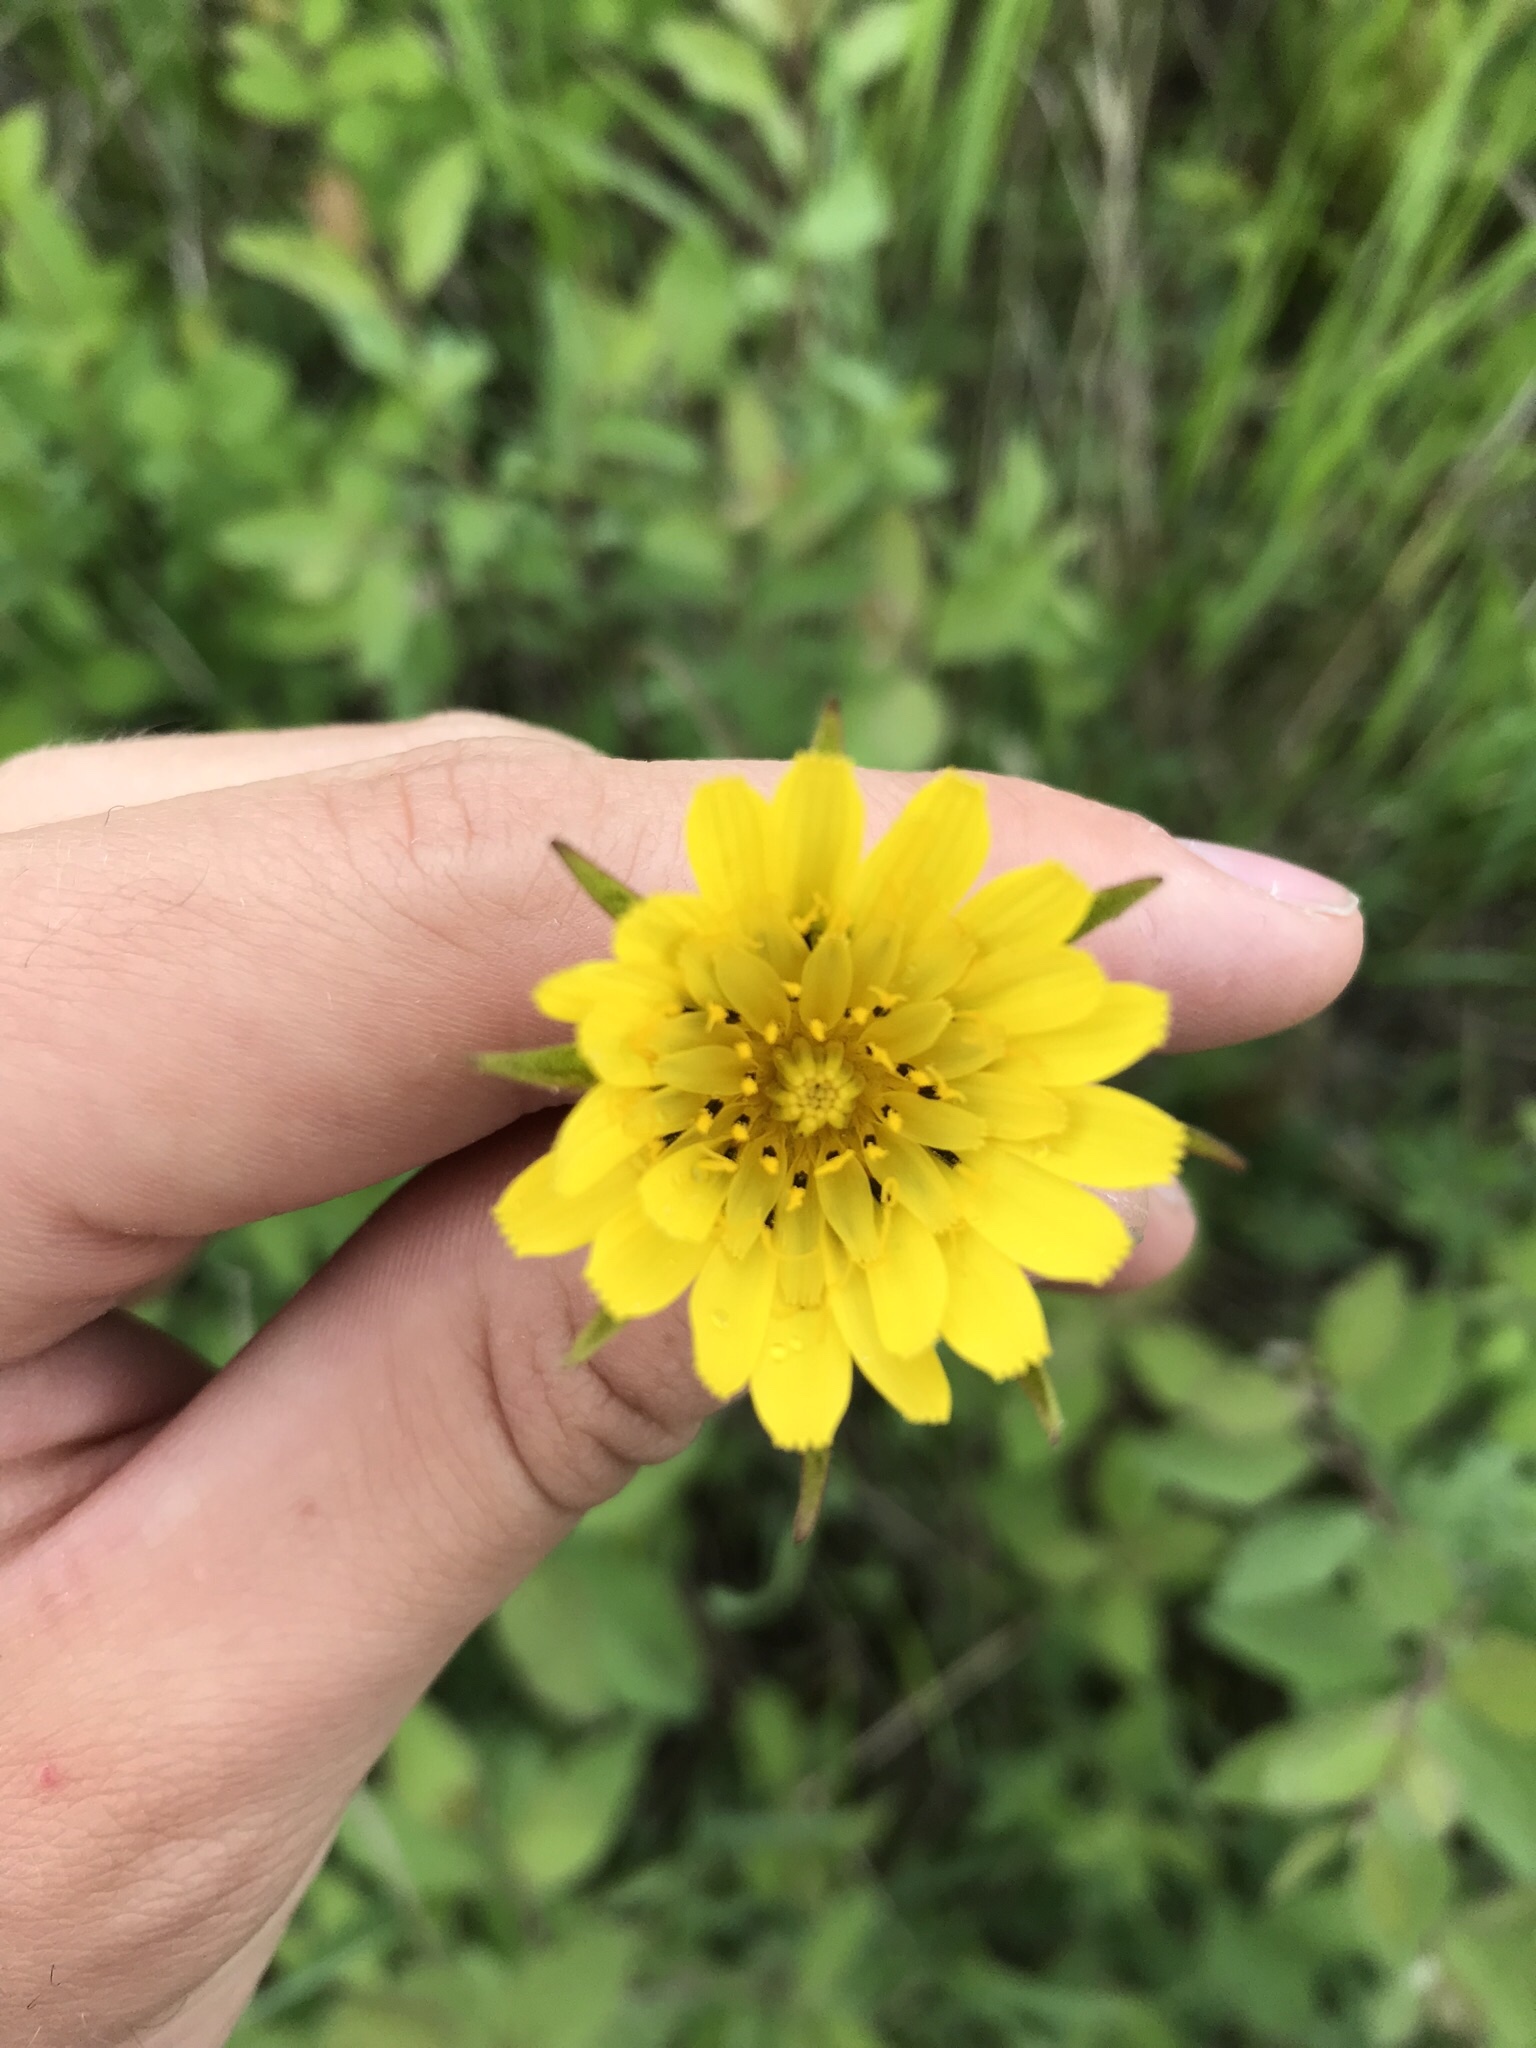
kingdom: Plantae
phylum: Tracheophyta
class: Magnoliopsida
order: Asterales
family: Asteraceae
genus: Tragopogon
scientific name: Tragopogon pratensis
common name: Goat's-beard
